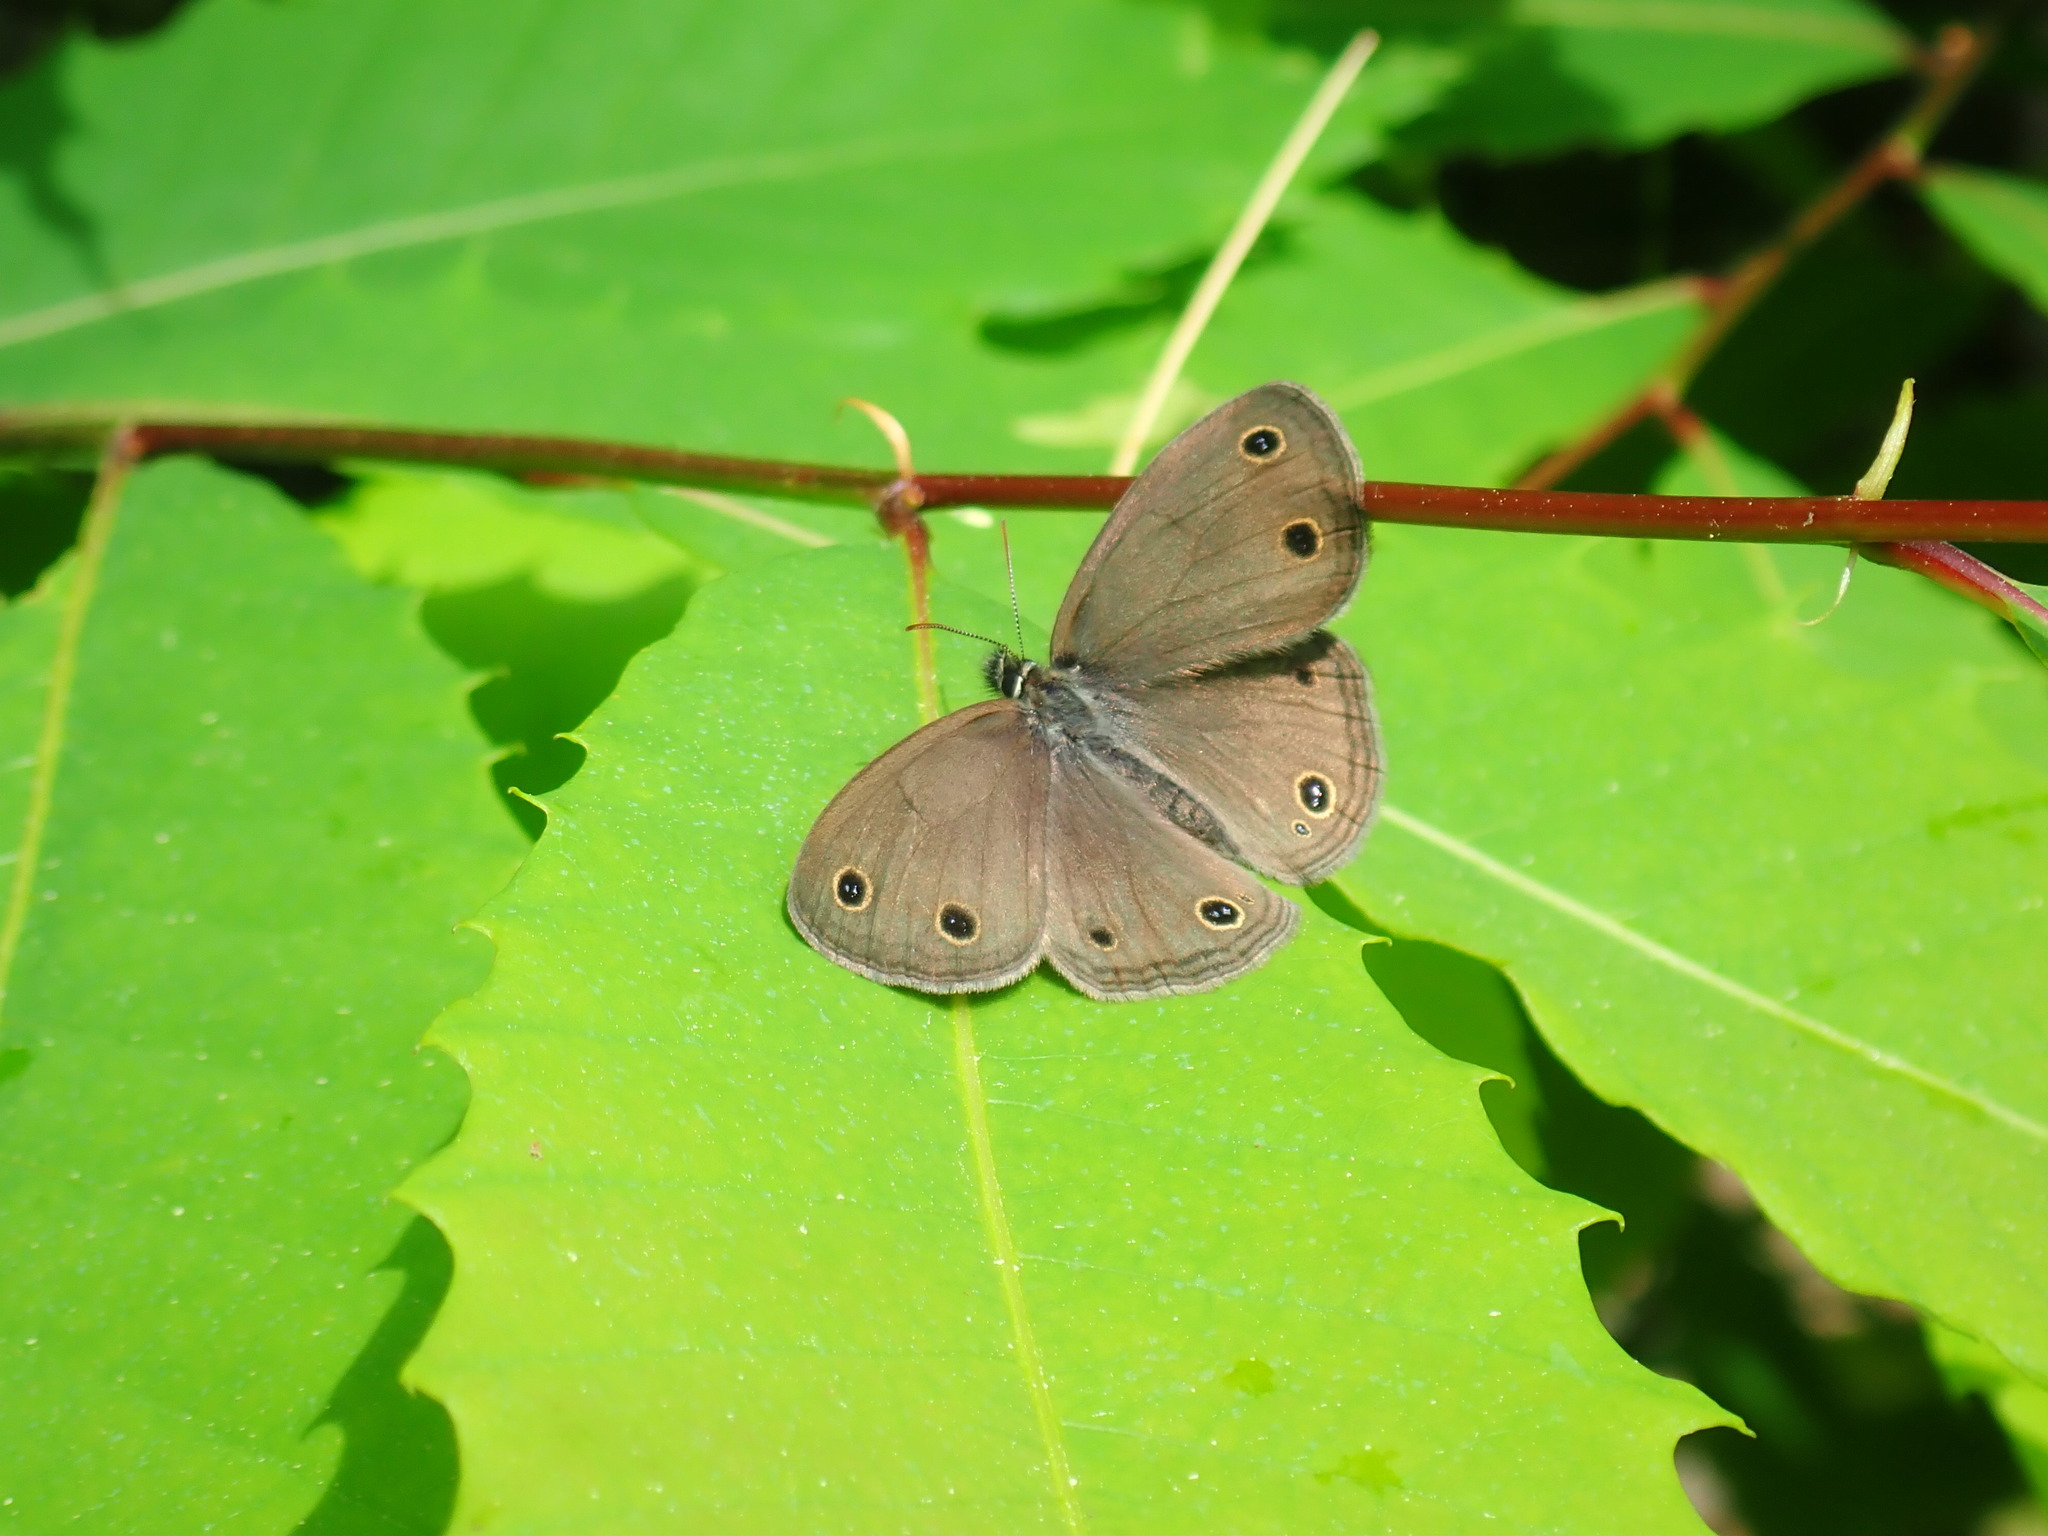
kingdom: Animalia
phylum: Arthropoda
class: Insecta
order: Lepidoptera
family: Nymphalidae
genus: Euptychia
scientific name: Euptychia cymela
